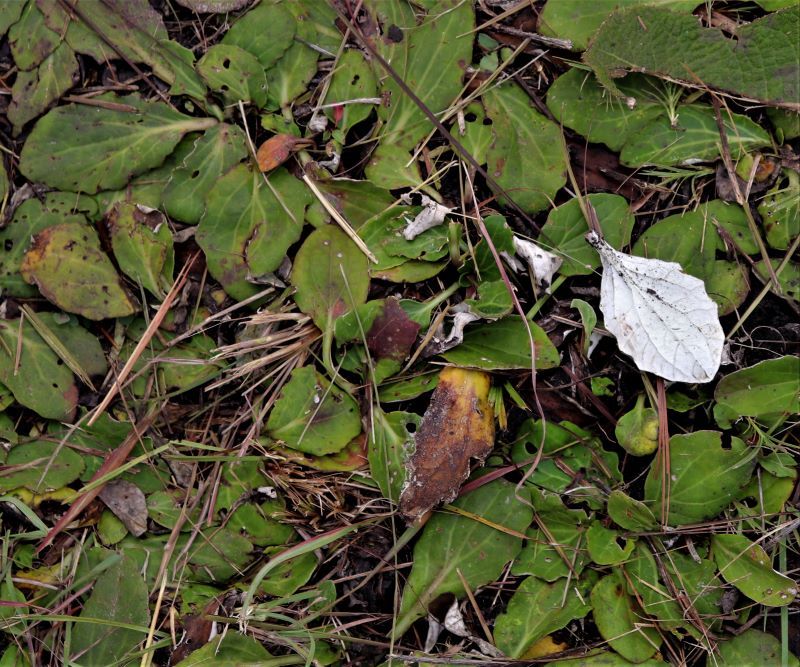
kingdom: Plantae
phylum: Tracheophyta
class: Magnoliopsida
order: Asterales
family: Asteraceae
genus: Haplocarpha
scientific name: Haplocarpha scaposa
